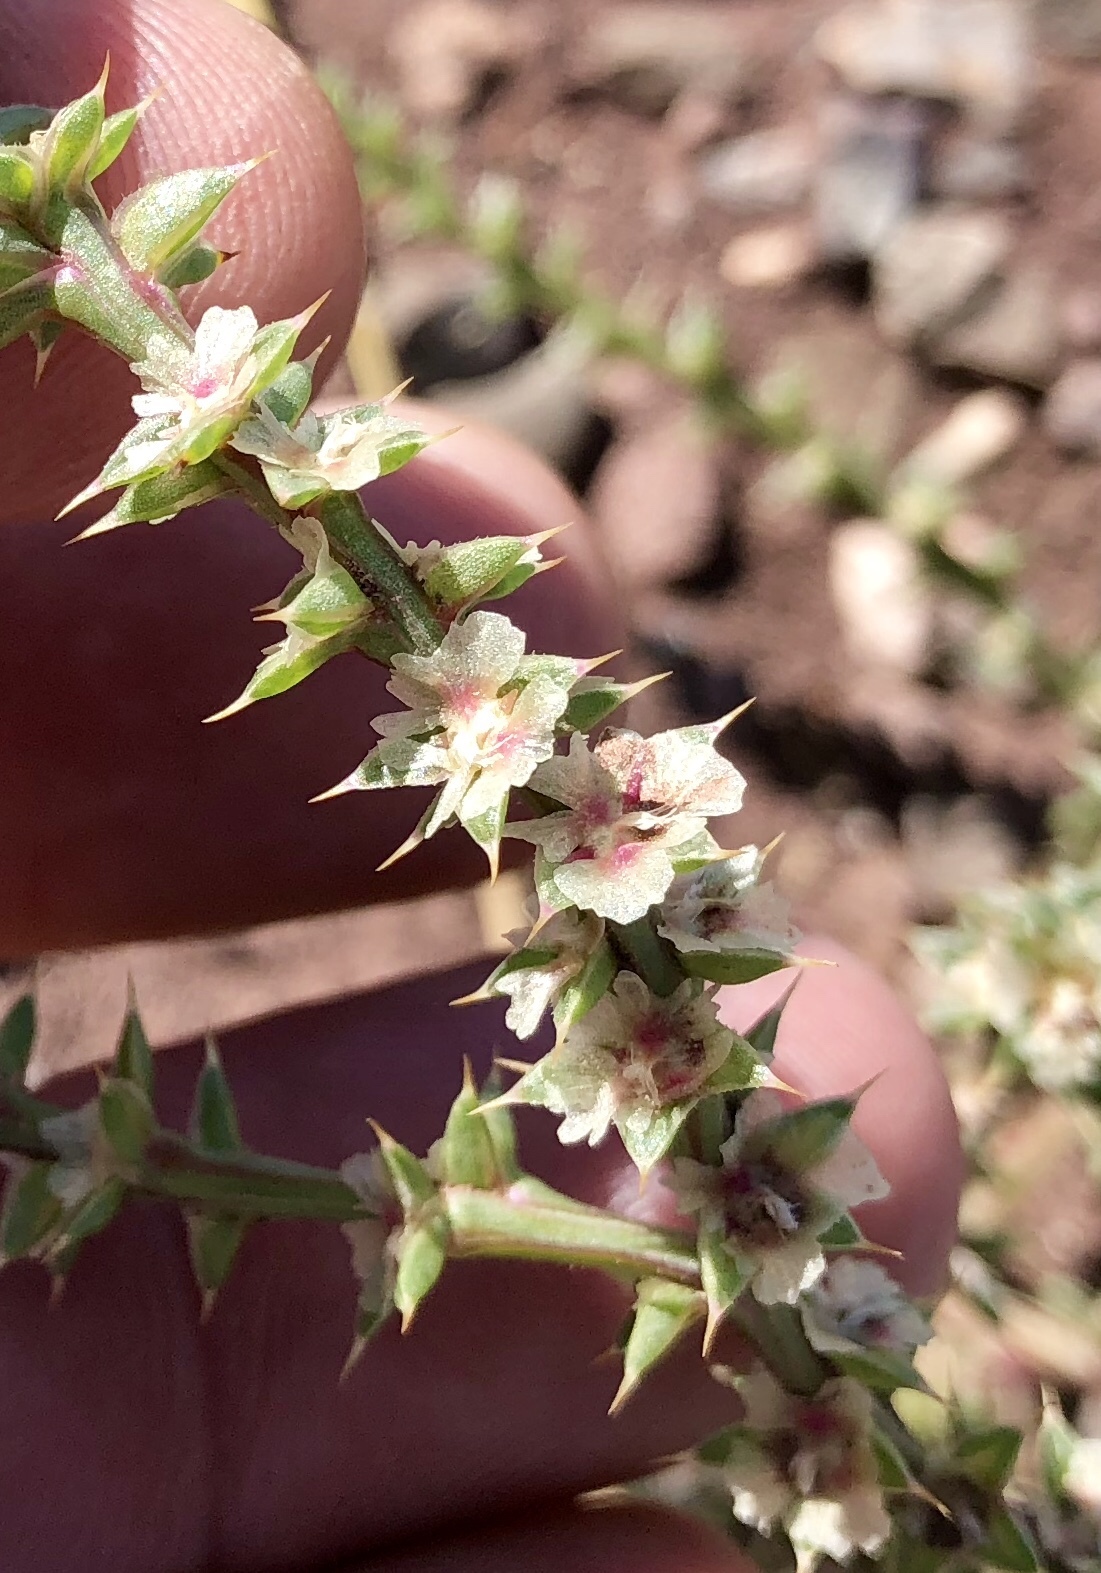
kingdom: Plantae
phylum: Tracheophyta
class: Magnoliopsida
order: Caryophyllales
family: Amaranthaceae
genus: Salsola
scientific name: Salsola tragus
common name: Prickly russian thistle
